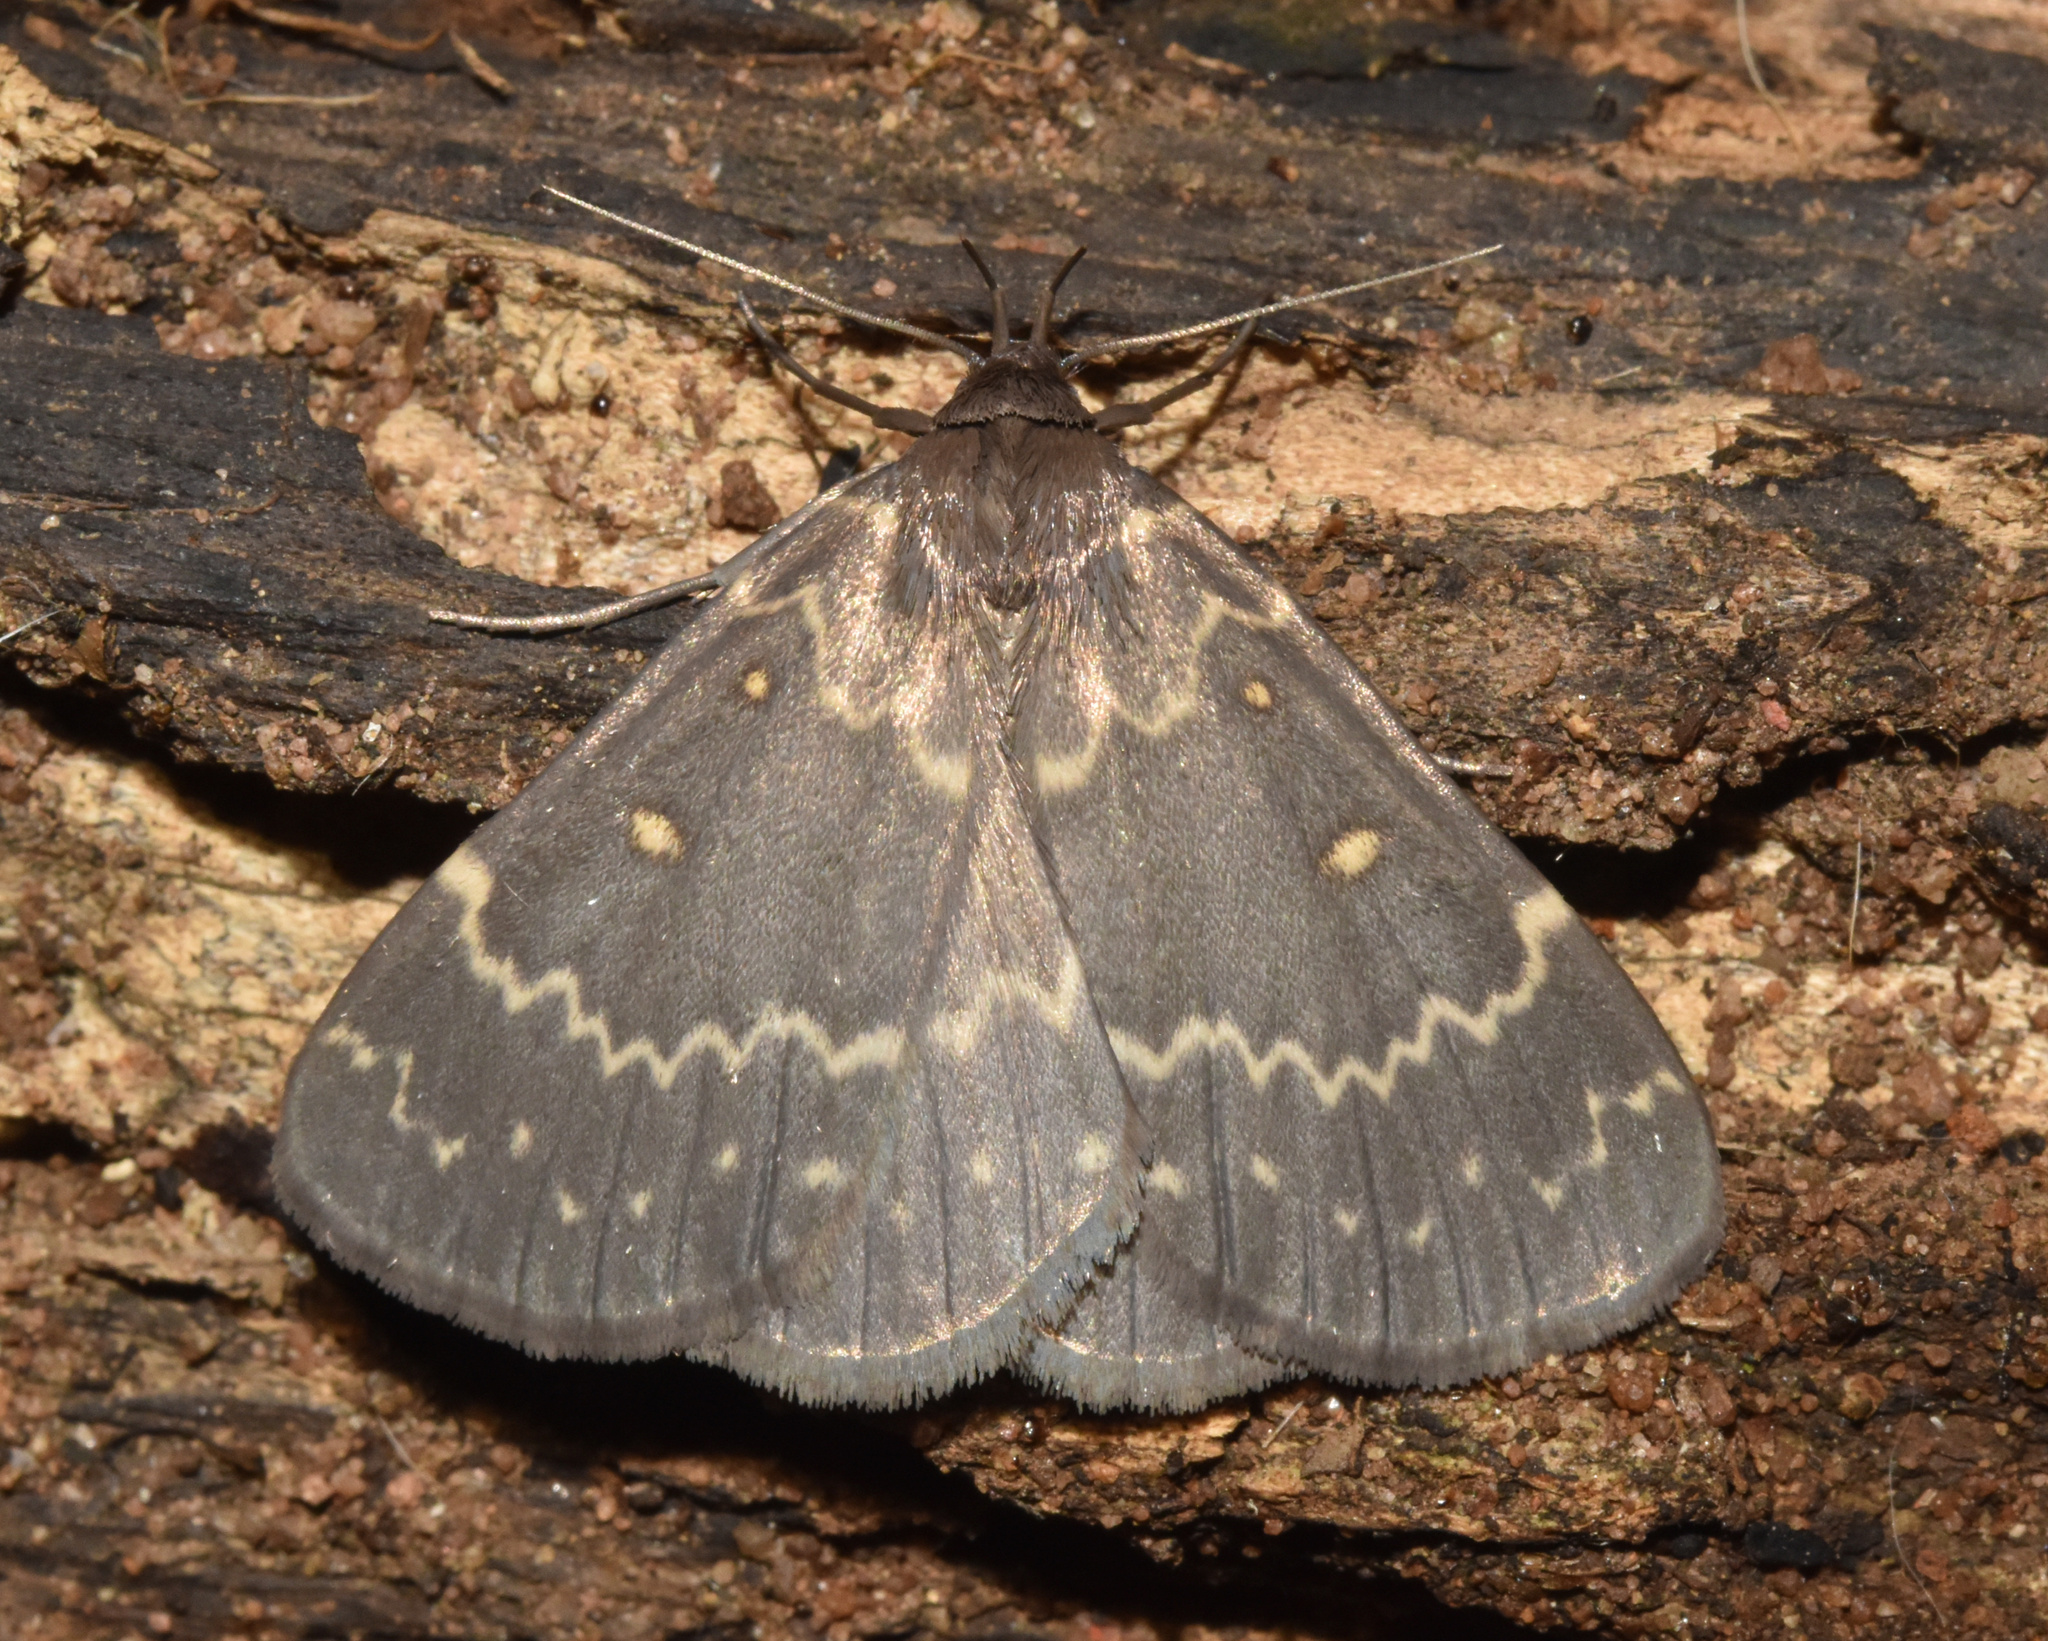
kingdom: Animalia
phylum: Arthropoda
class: Insecta
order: Lepidoptera
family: Erebidae
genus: Pinacia
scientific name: Pinacia gigantalis
